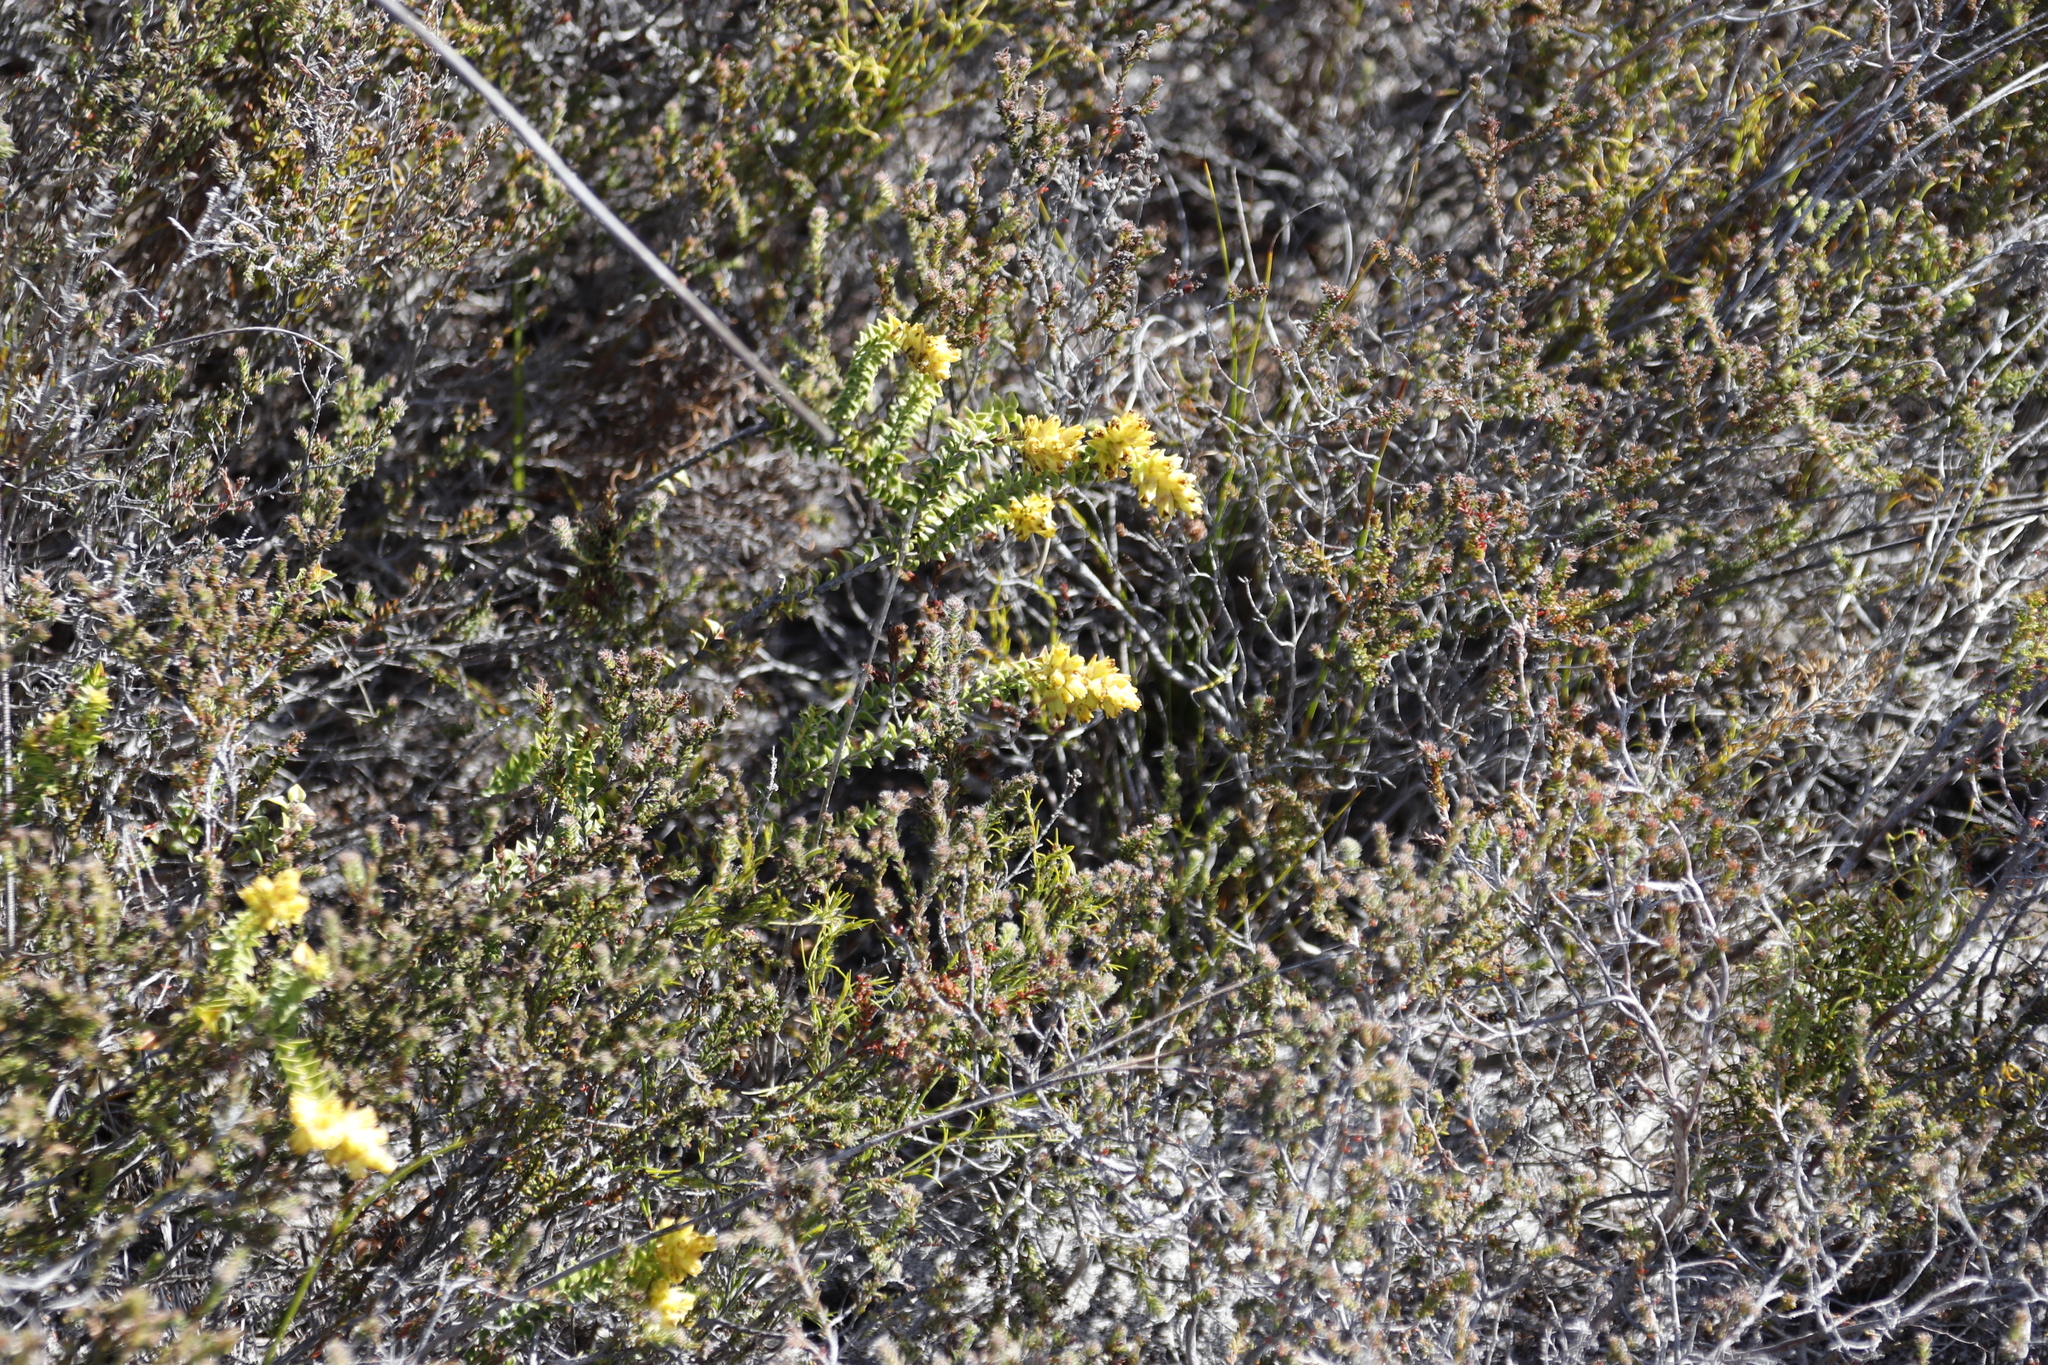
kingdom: Plantae
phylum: Tracheophyta
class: Magnoliopsida
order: Myrtales
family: Penaeaceae
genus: Penaea
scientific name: Penaea mucronata
